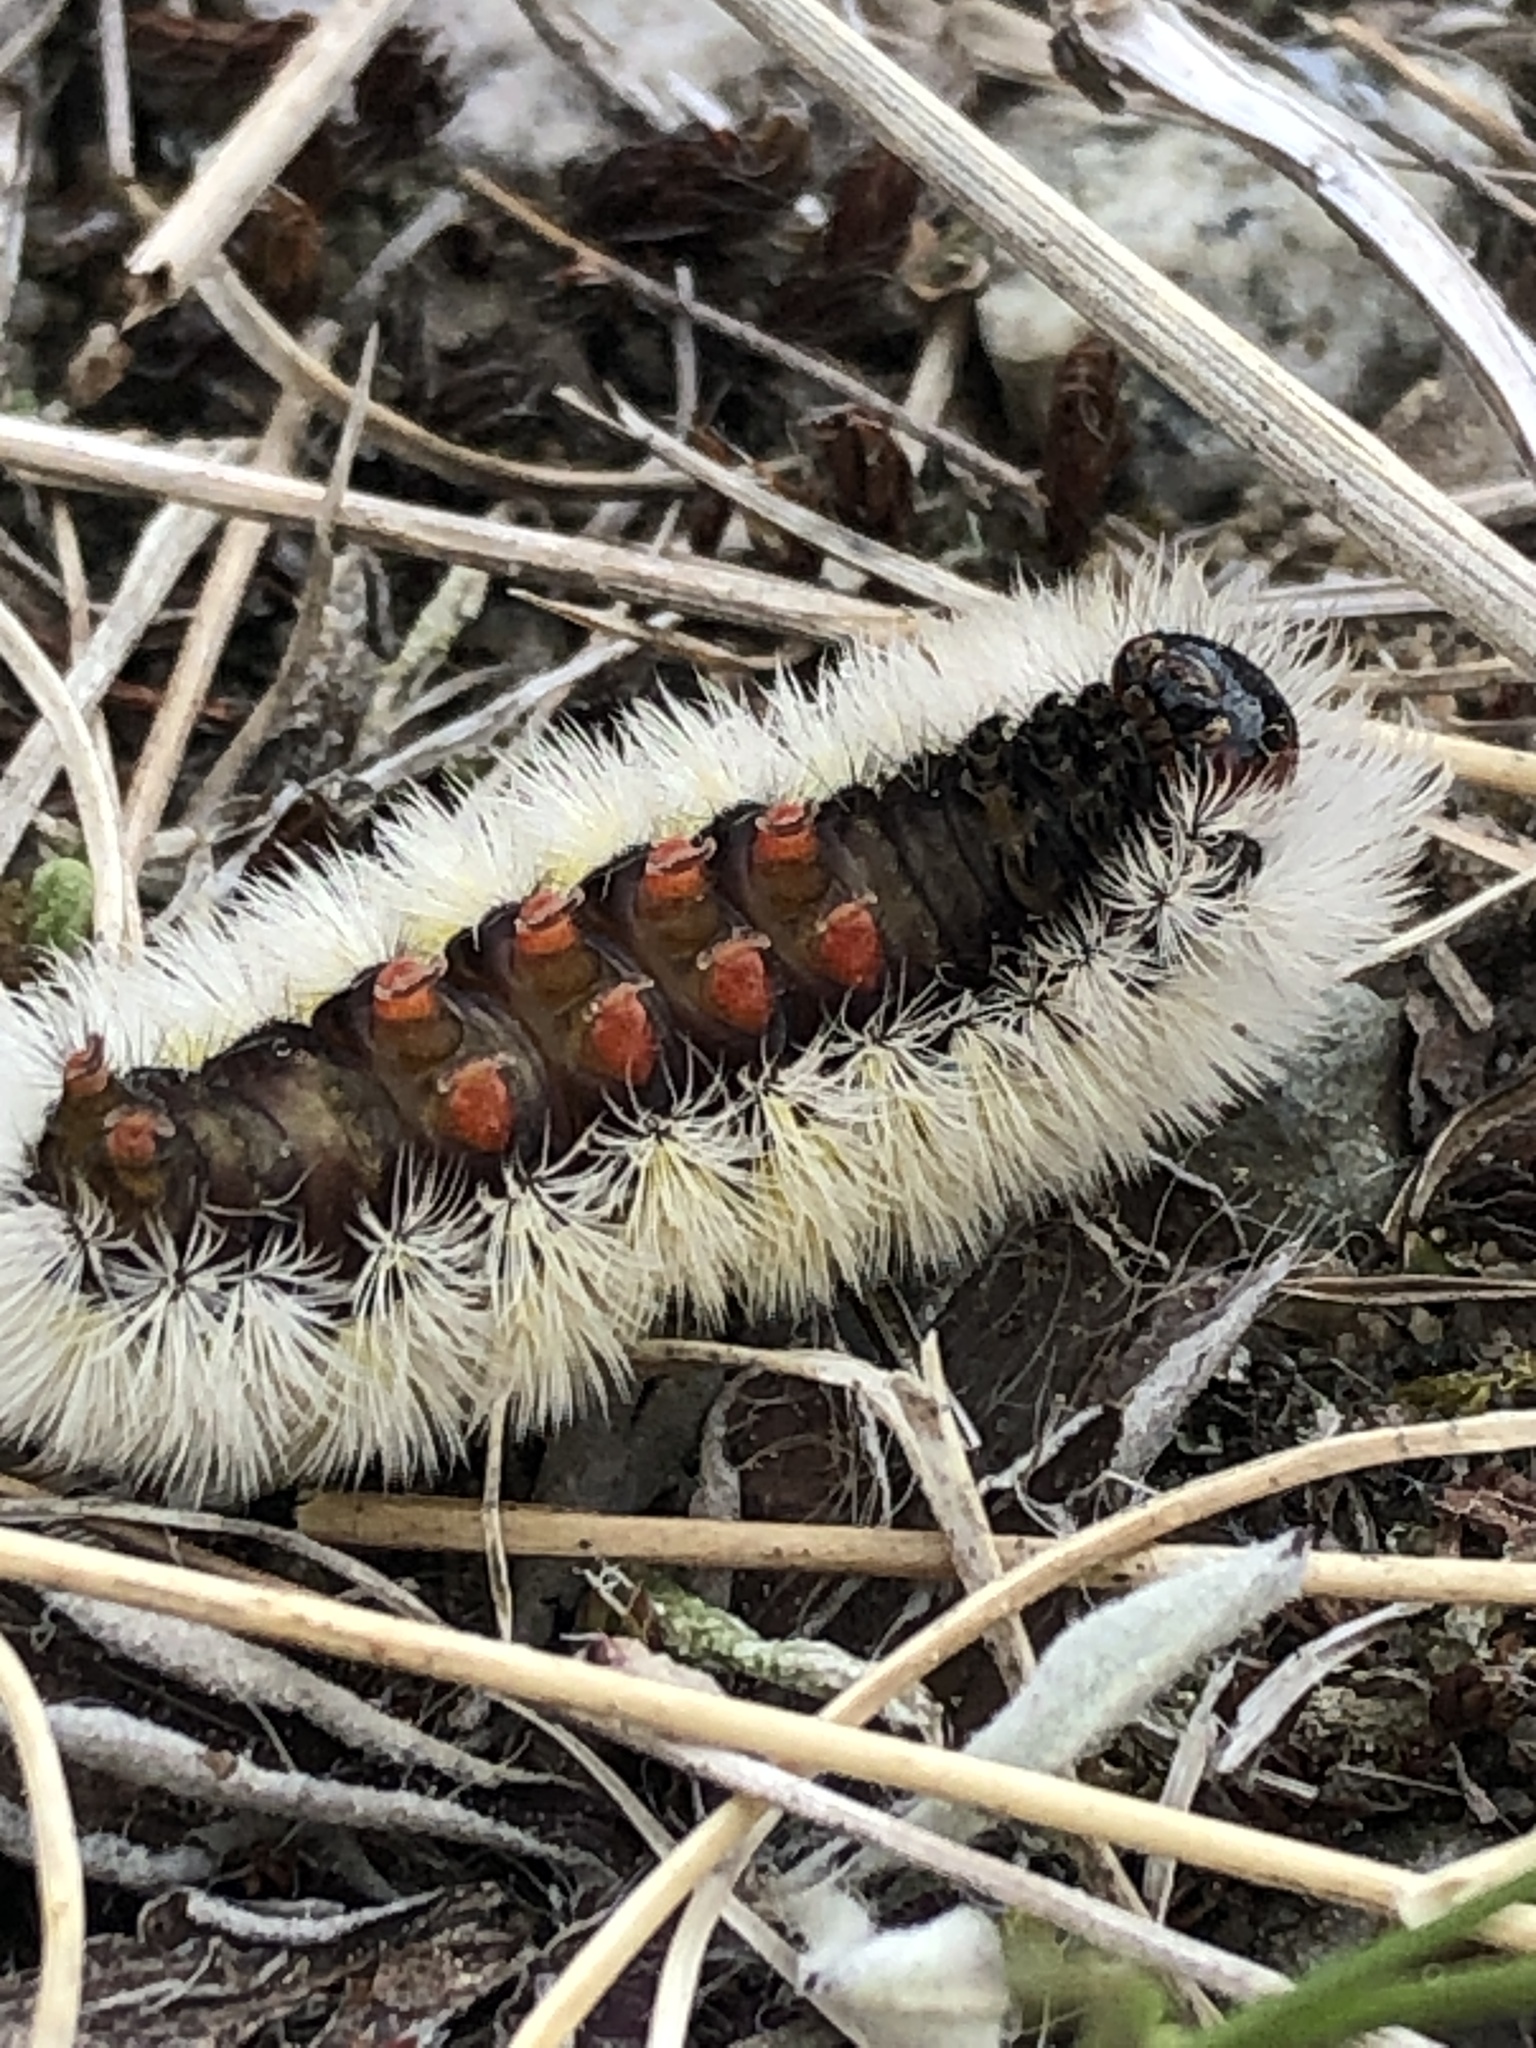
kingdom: Animalia
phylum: Arthropoda
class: Insecta
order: Lepidoptera
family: Erebidae
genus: Ctenucha
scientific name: Ctenucha virginica
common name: Virginia ctenucha moth
